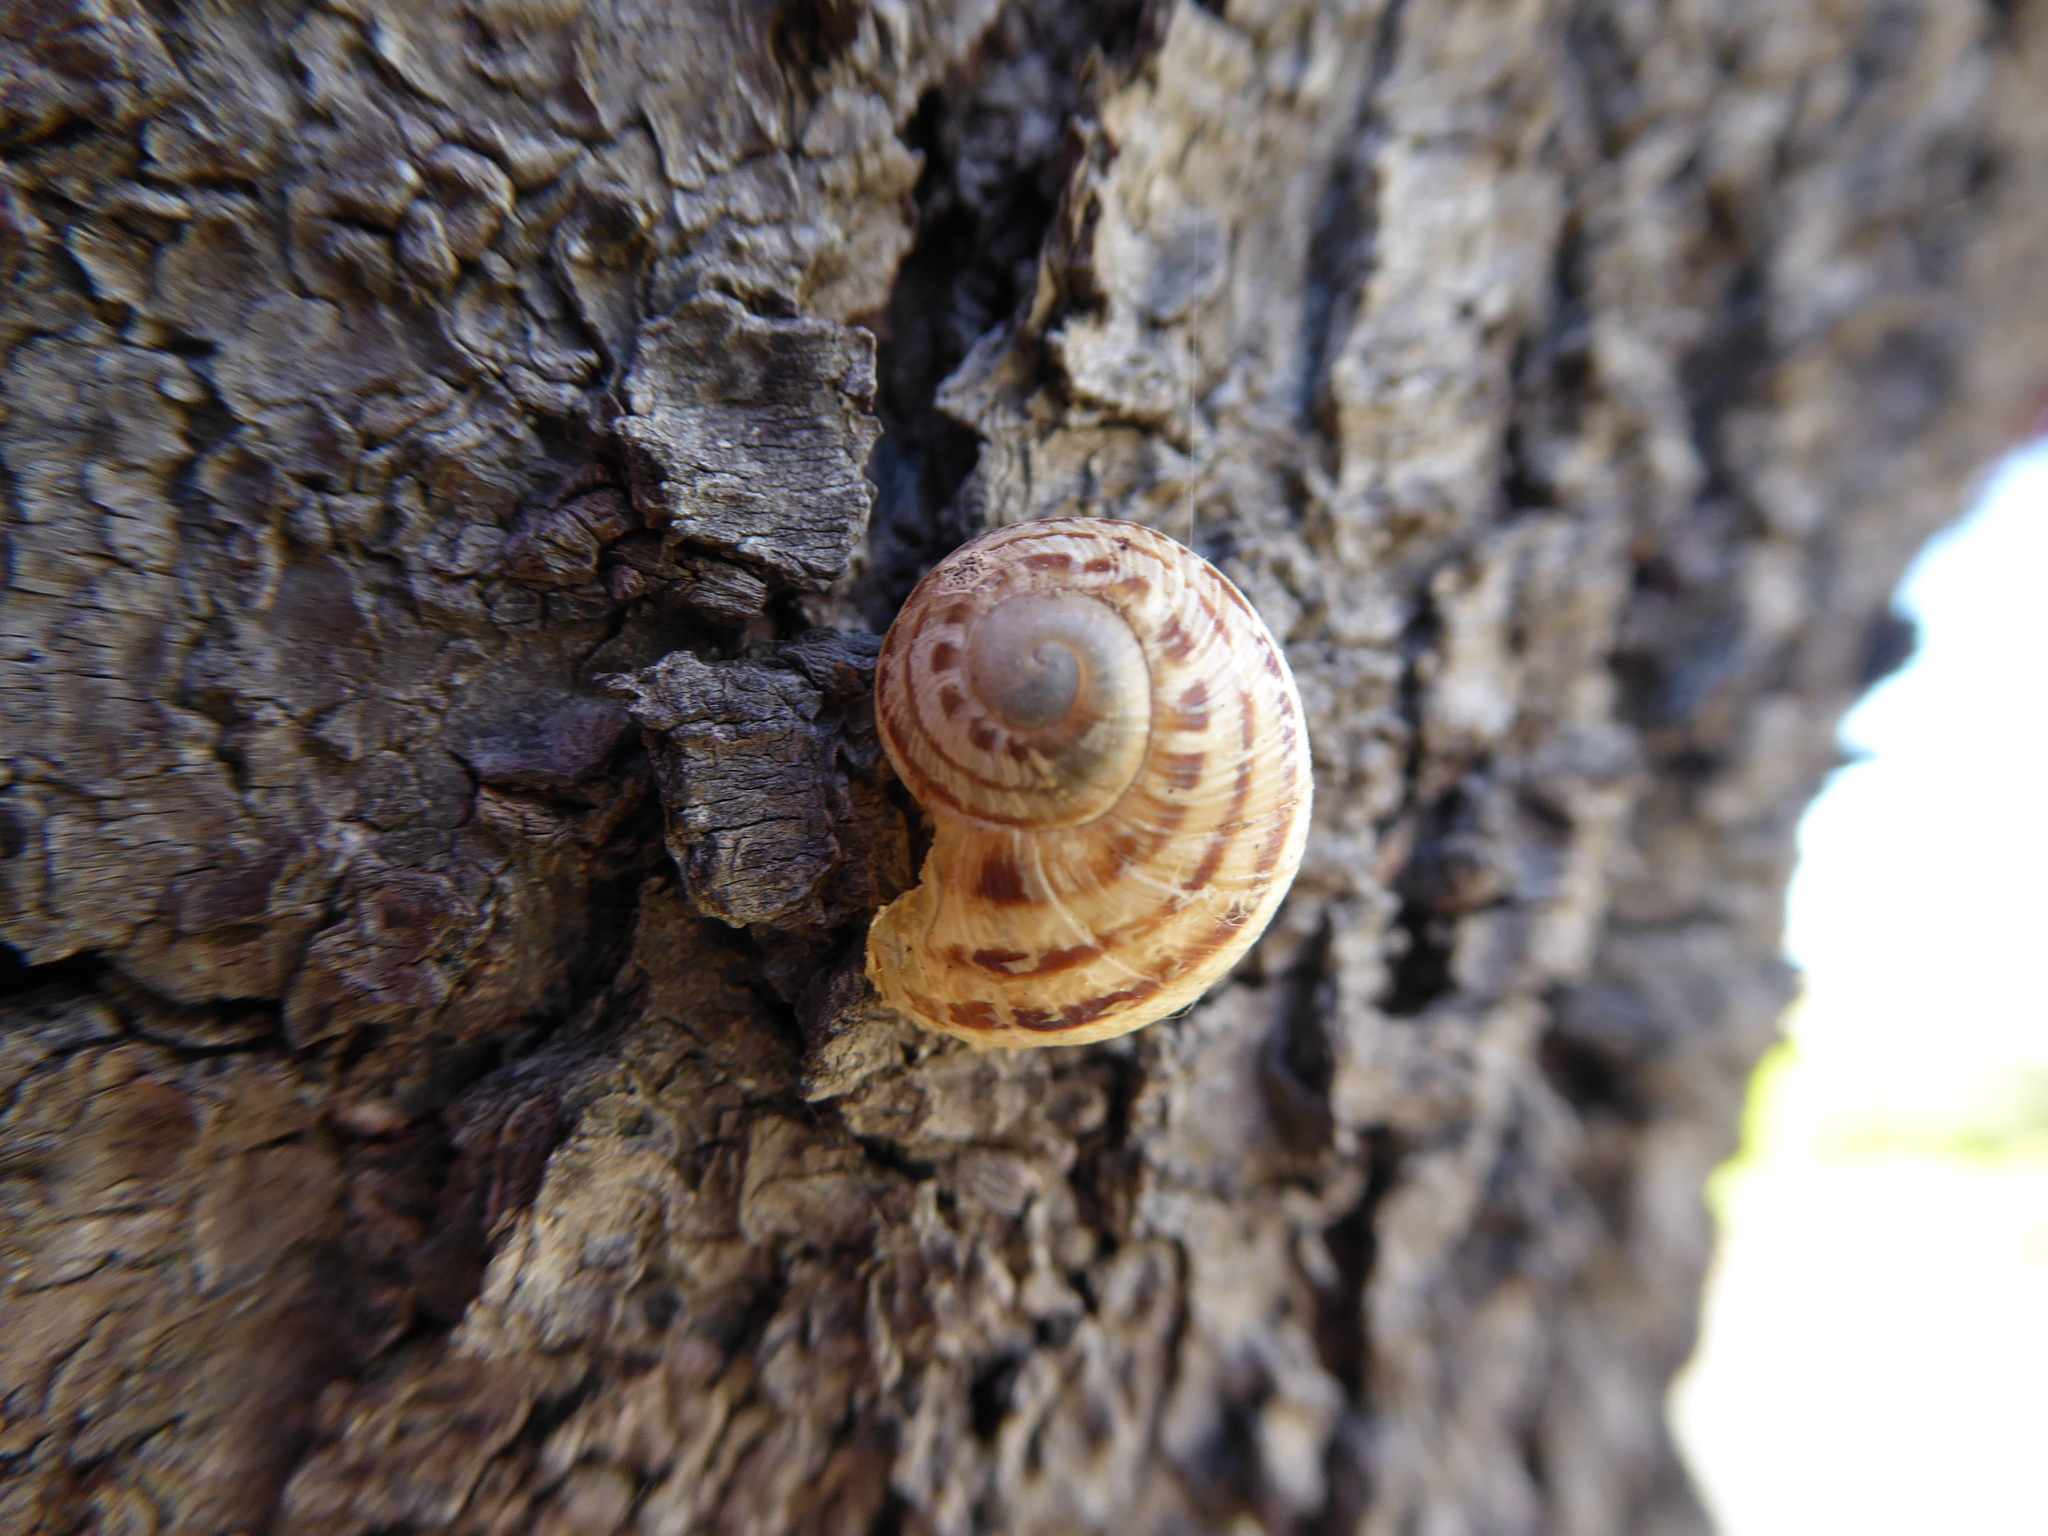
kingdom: Animalia
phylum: Mollusca
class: Gastropoda
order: Stylommatophora
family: Helicidae
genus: Cornu
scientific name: Cornu aspersum
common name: Brown garden snail
